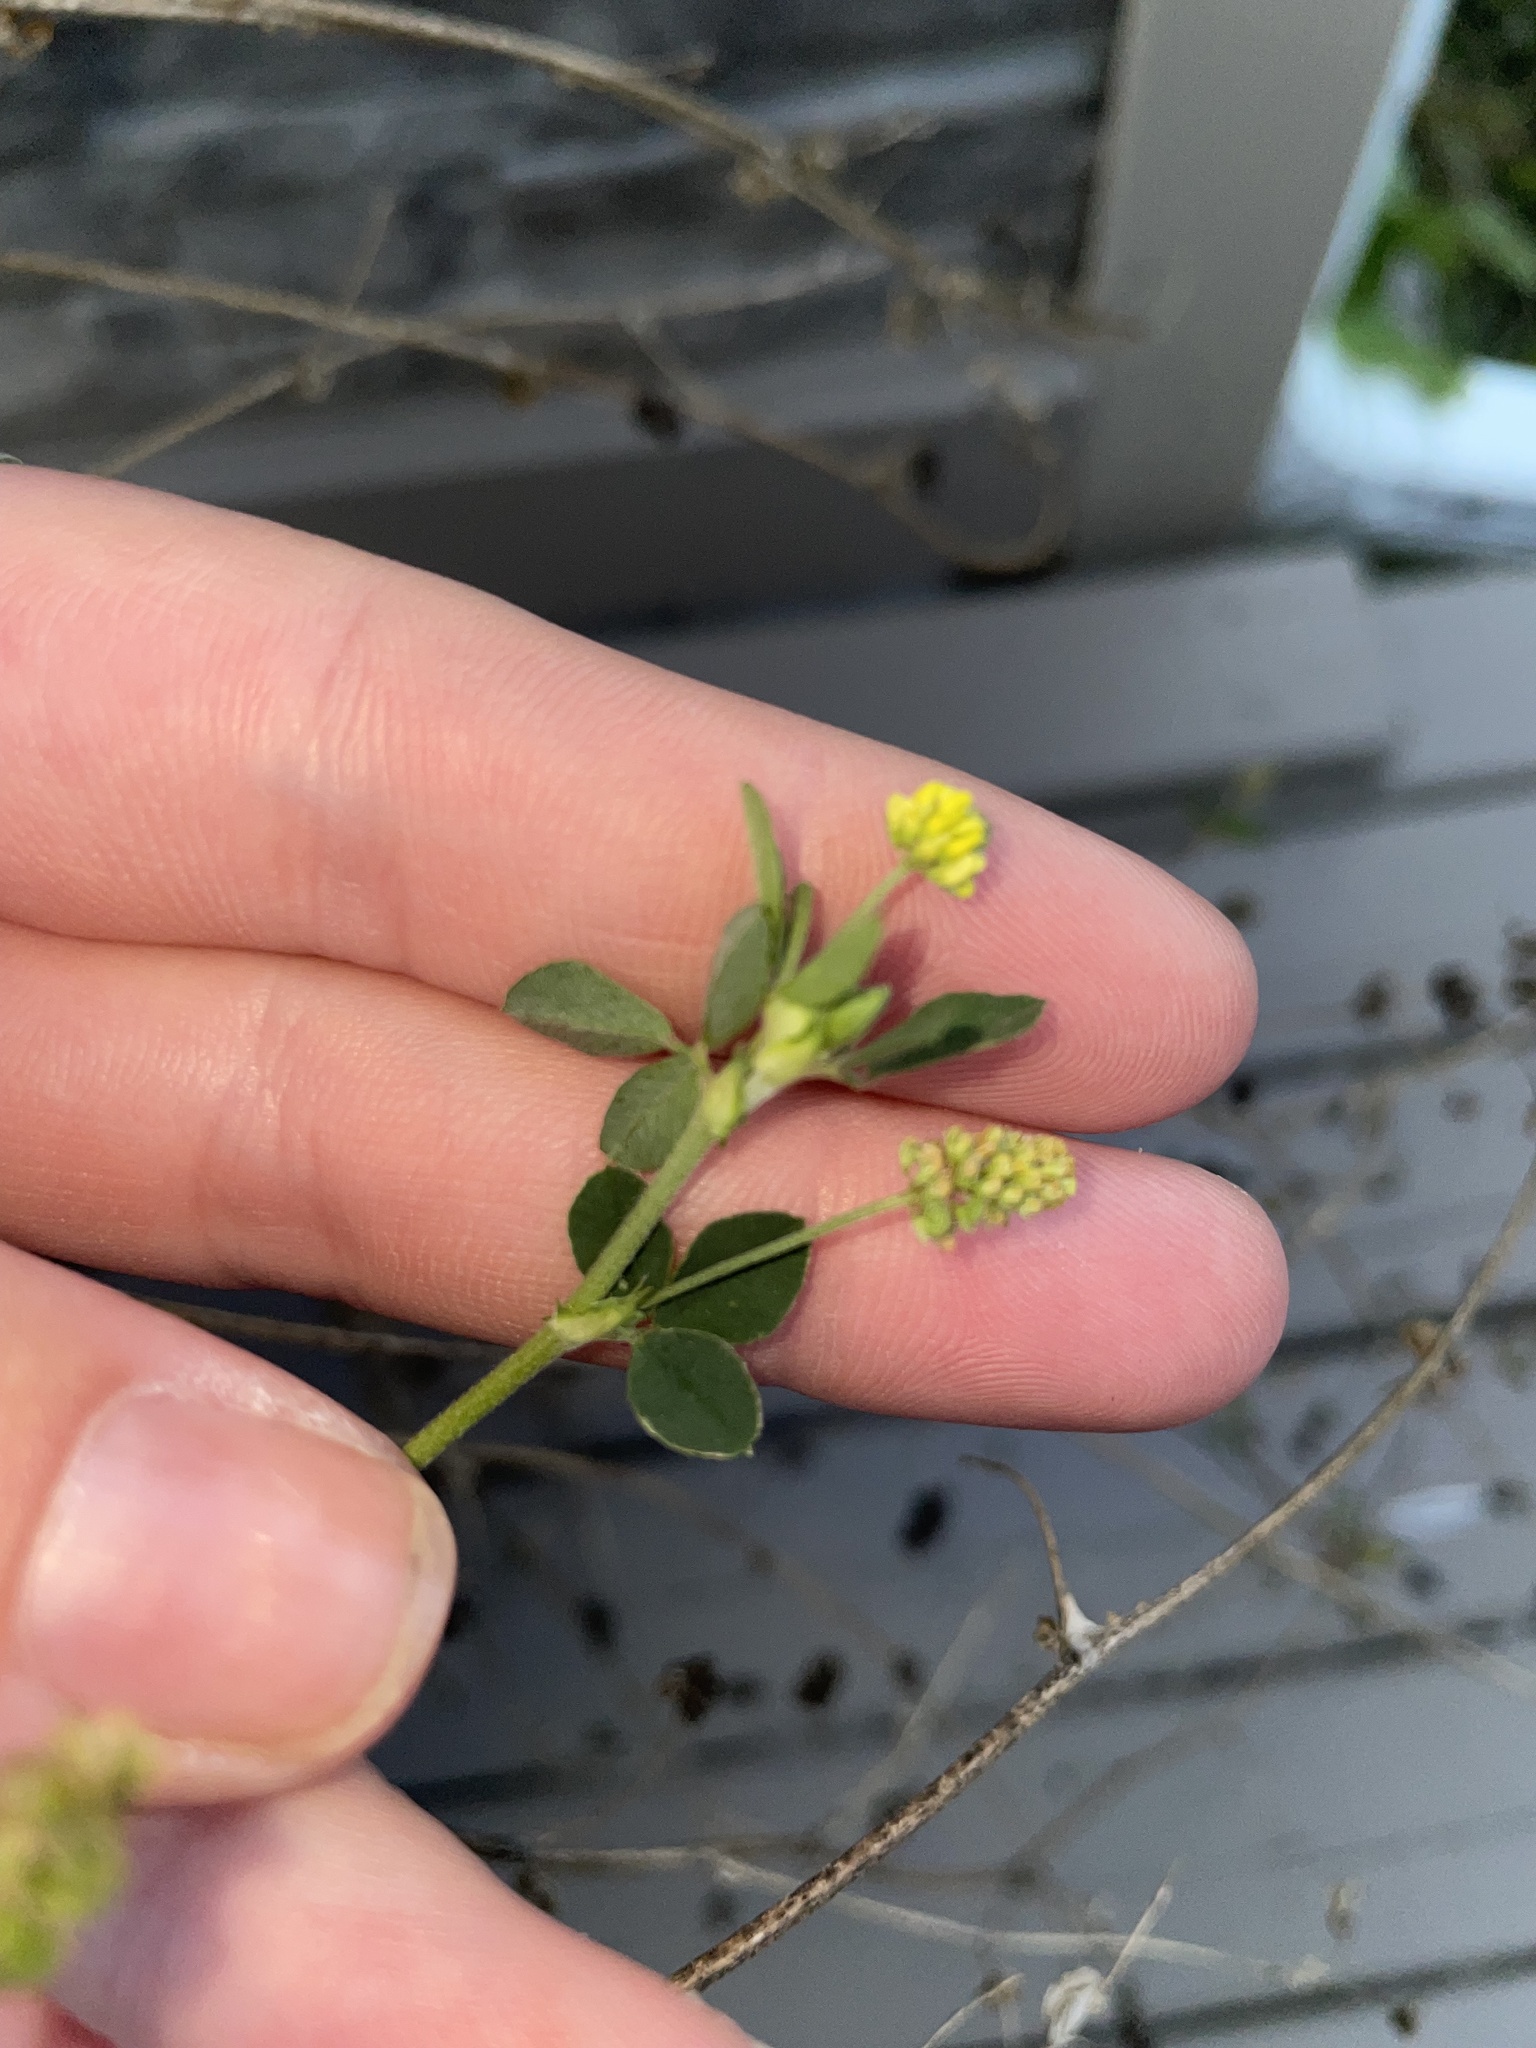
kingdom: Plantae
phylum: Tracheophyta
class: Magnoliopsida
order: Fabales
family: Fabaceae
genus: Medicago
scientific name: Medicago lupulina
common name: Black medick
